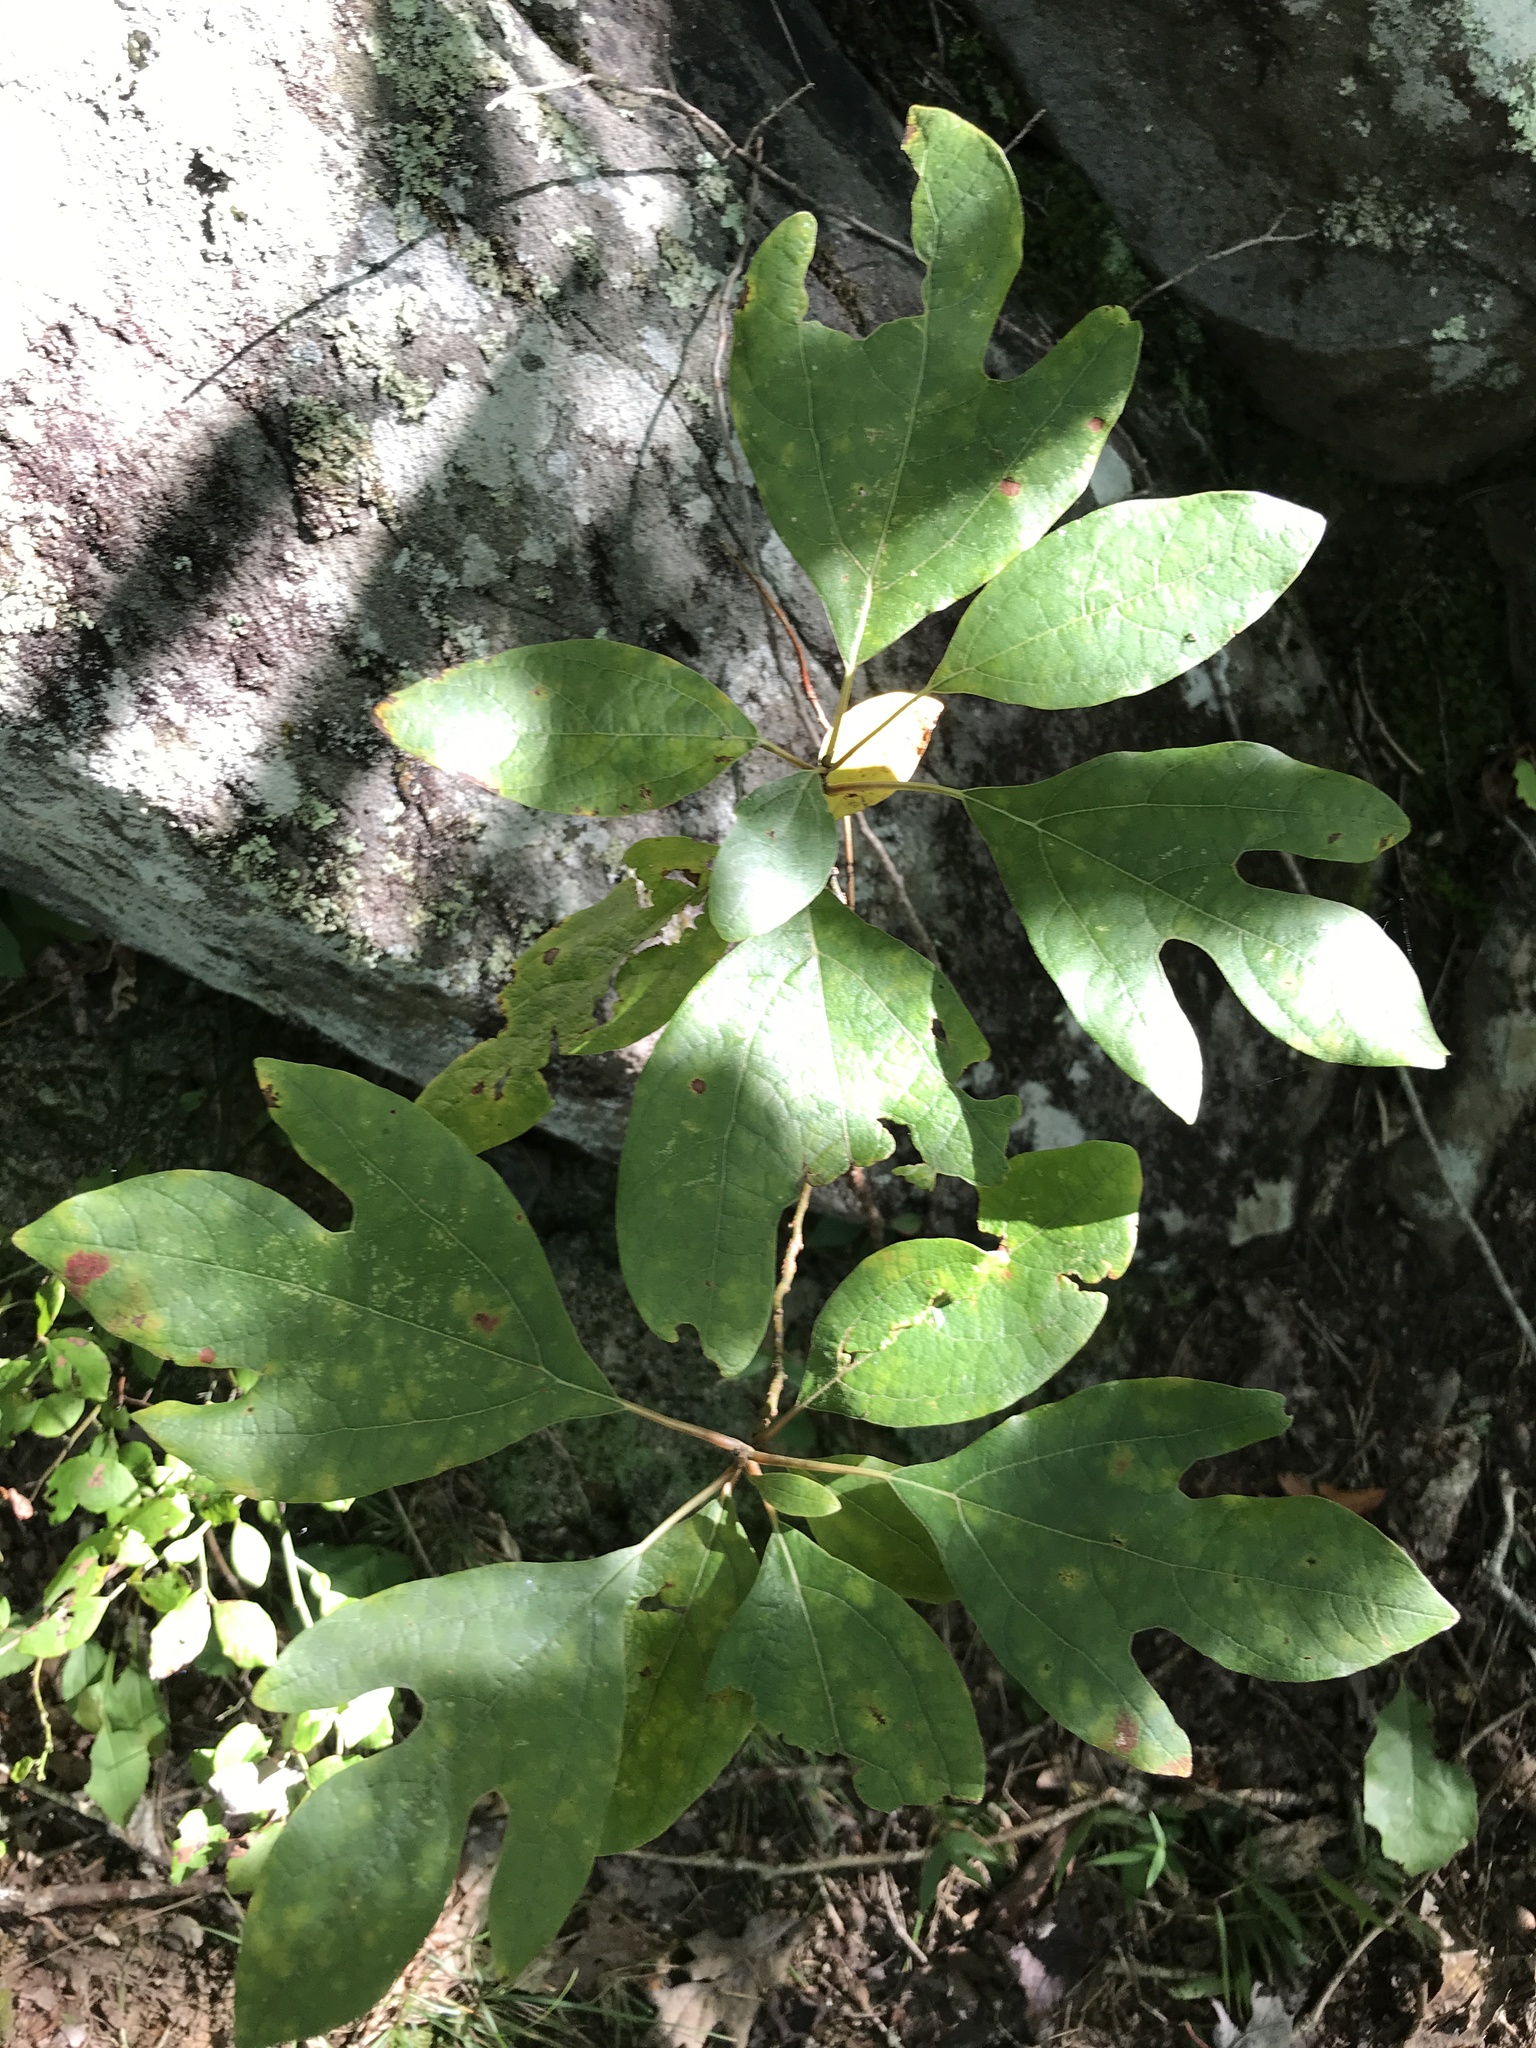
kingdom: Plantae
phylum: Tracheophyta
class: Magnoliopsida
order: Laurales
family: Lauraceae
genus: Sassafras
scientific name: Sassafras albidum
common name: Sassafras
